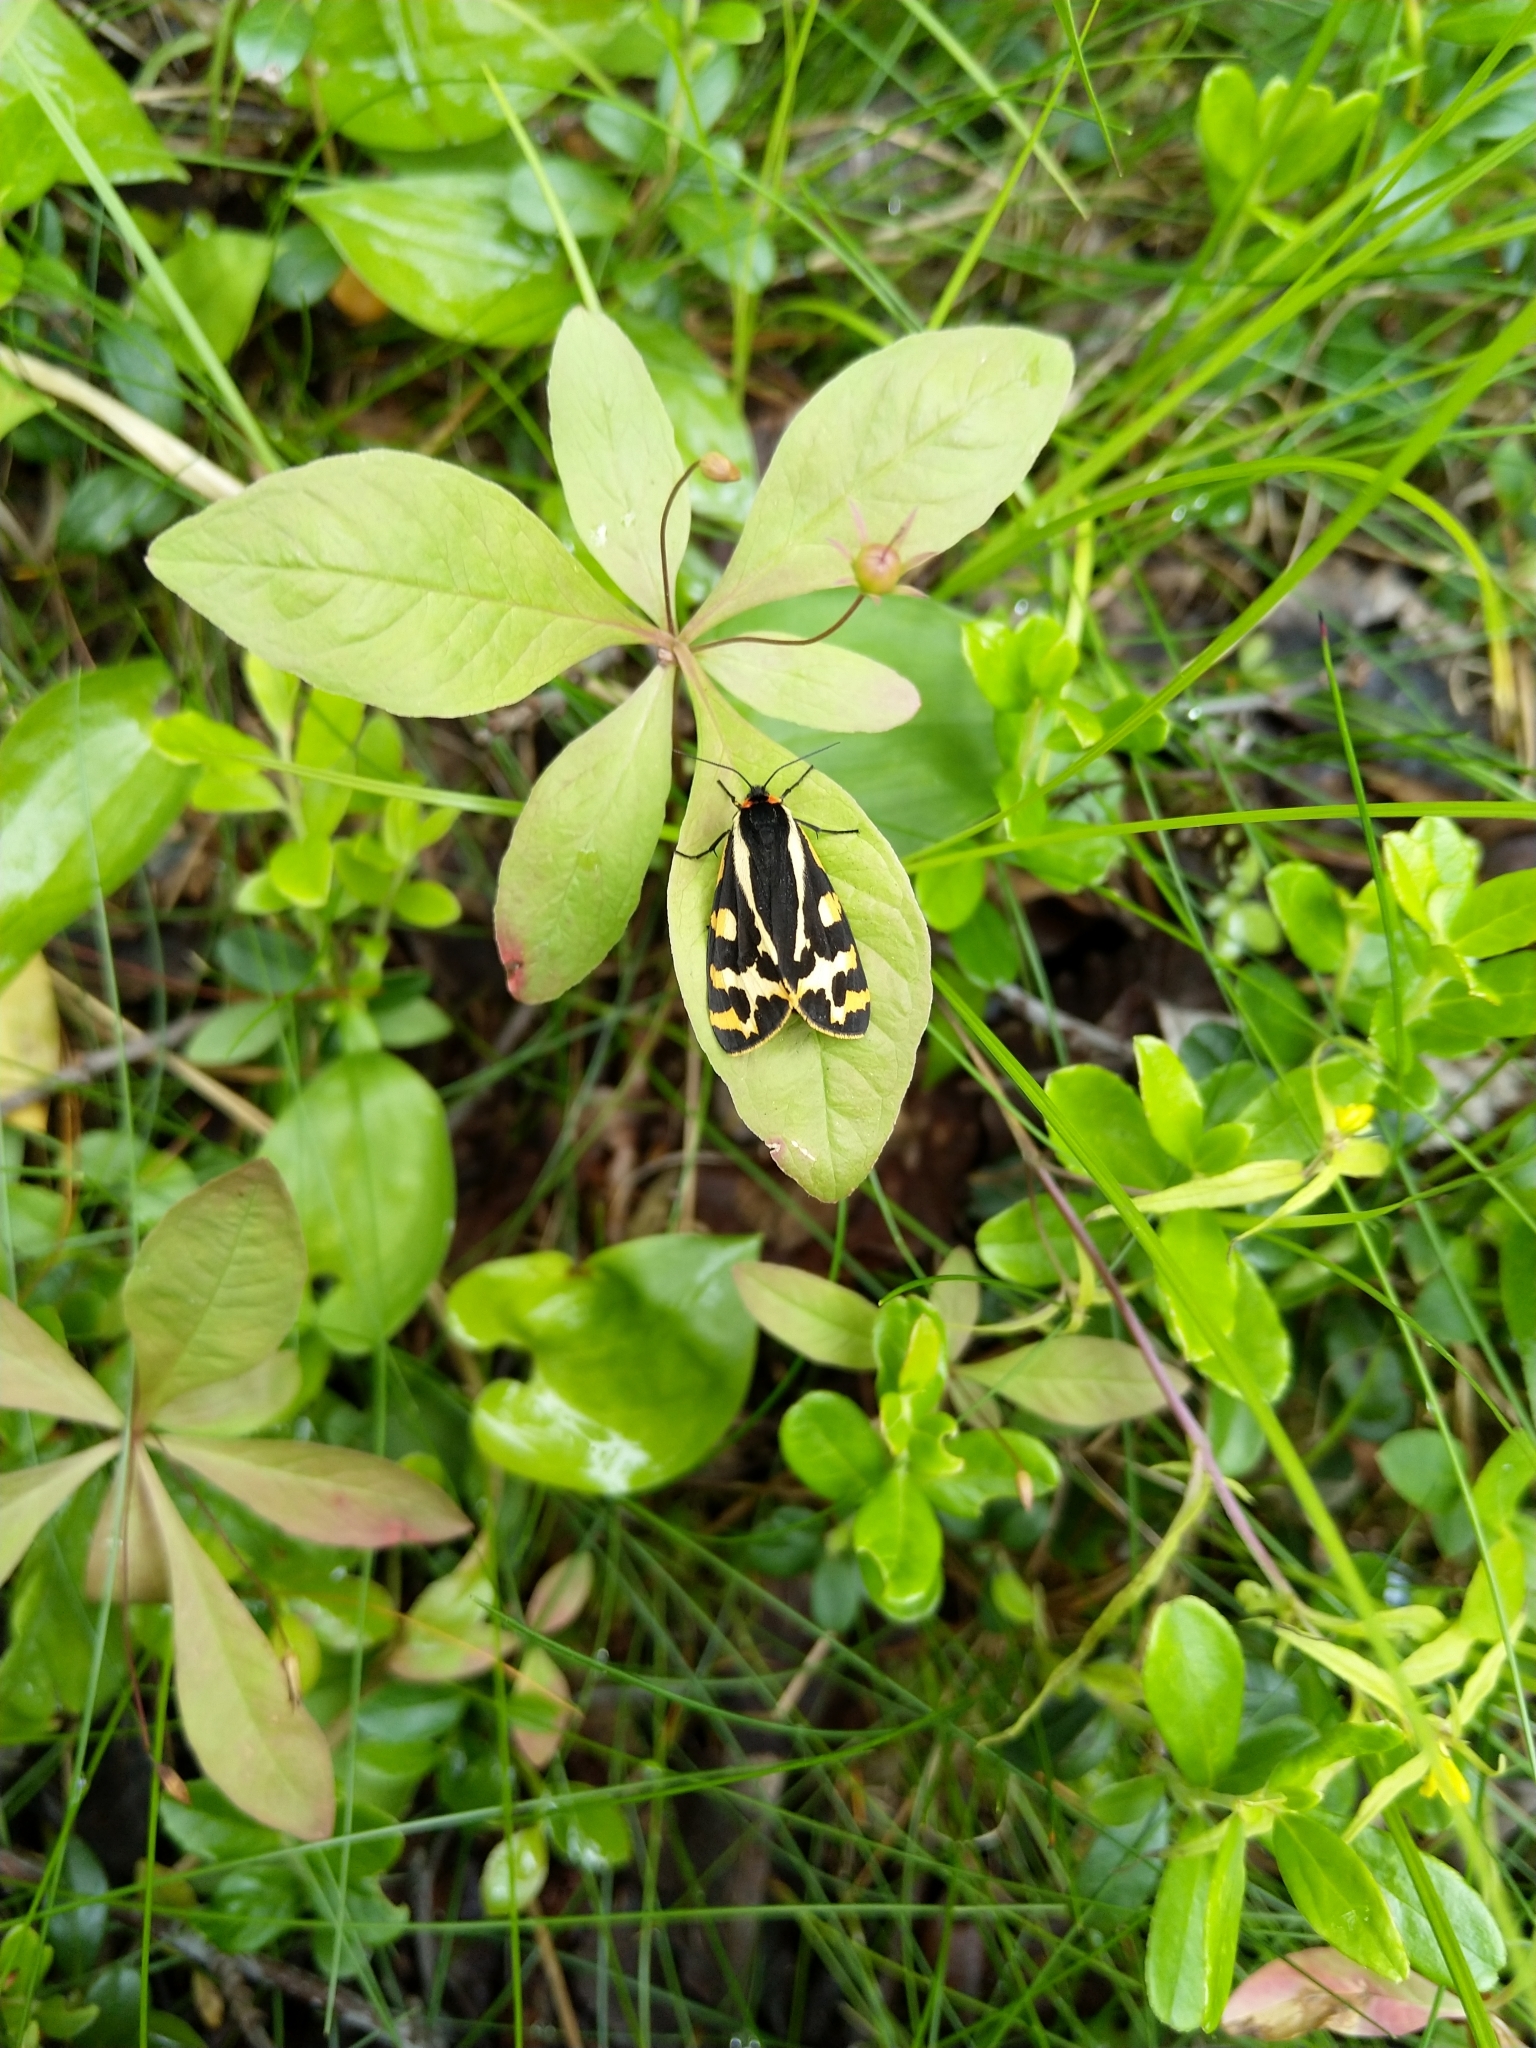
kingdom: Animalia
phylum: Arthropoda
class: Insecta
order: Lepidoptera
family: Erebidae
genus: Parasemia
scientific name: Parasemia plantaginis
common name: Wood tiger
